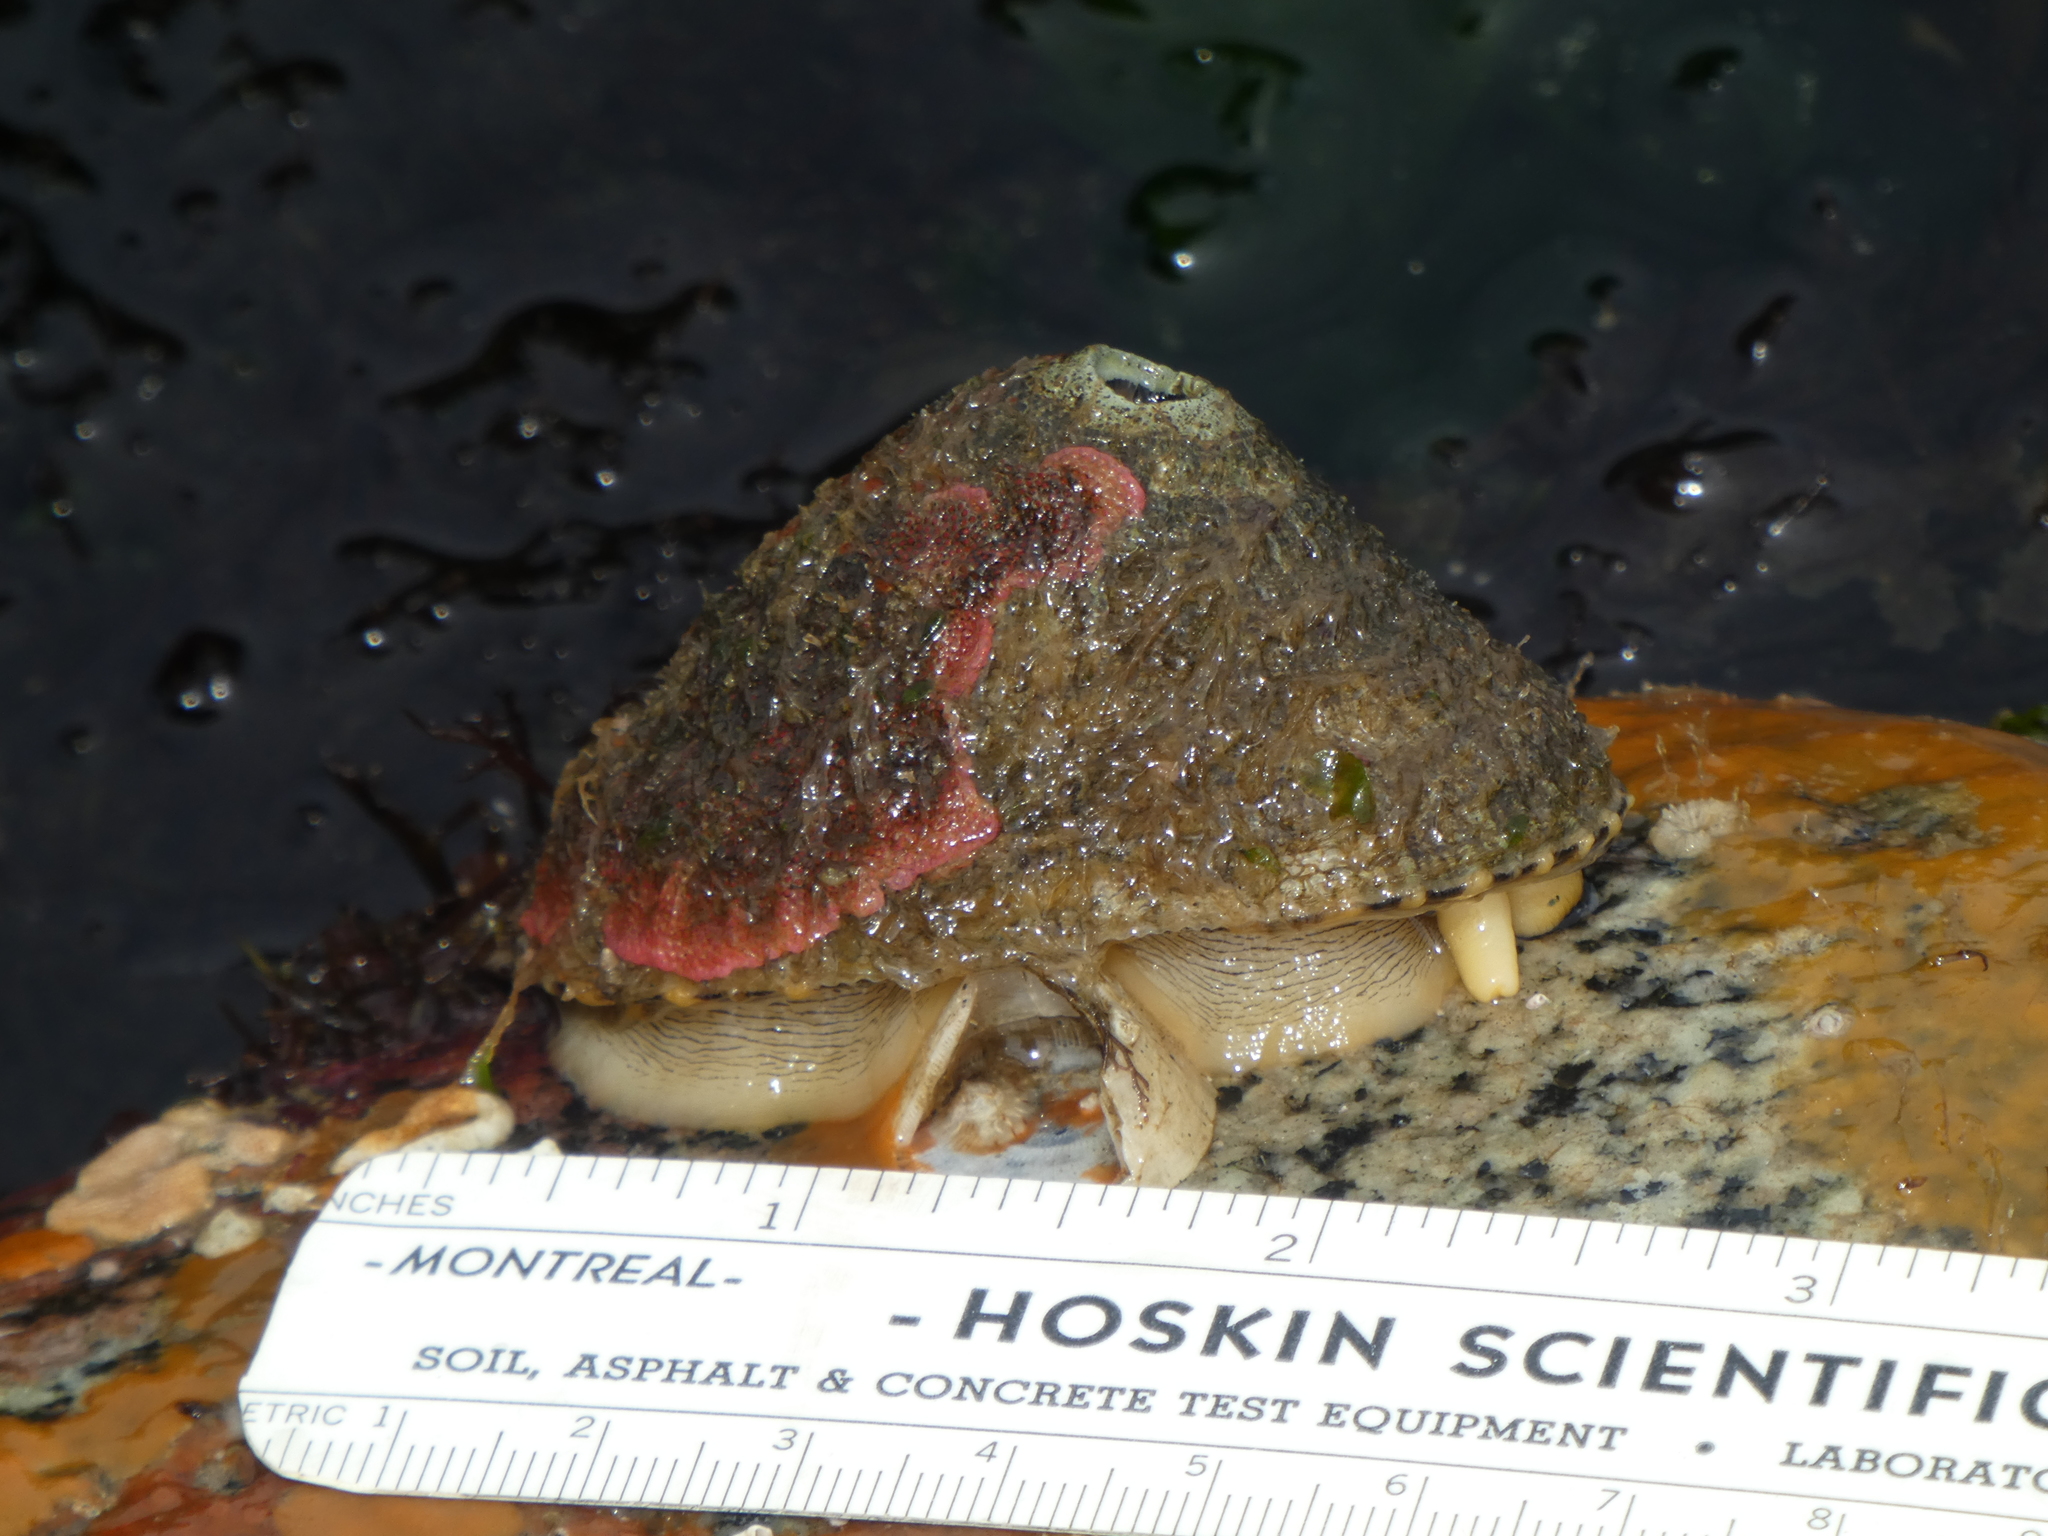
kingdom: Animalia
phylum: Mollusca
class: Gastropoda
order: Lepetellida
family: Fissurellidae
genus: Diodora
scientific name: Diodora aspera
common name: Rough keyhole limpet
